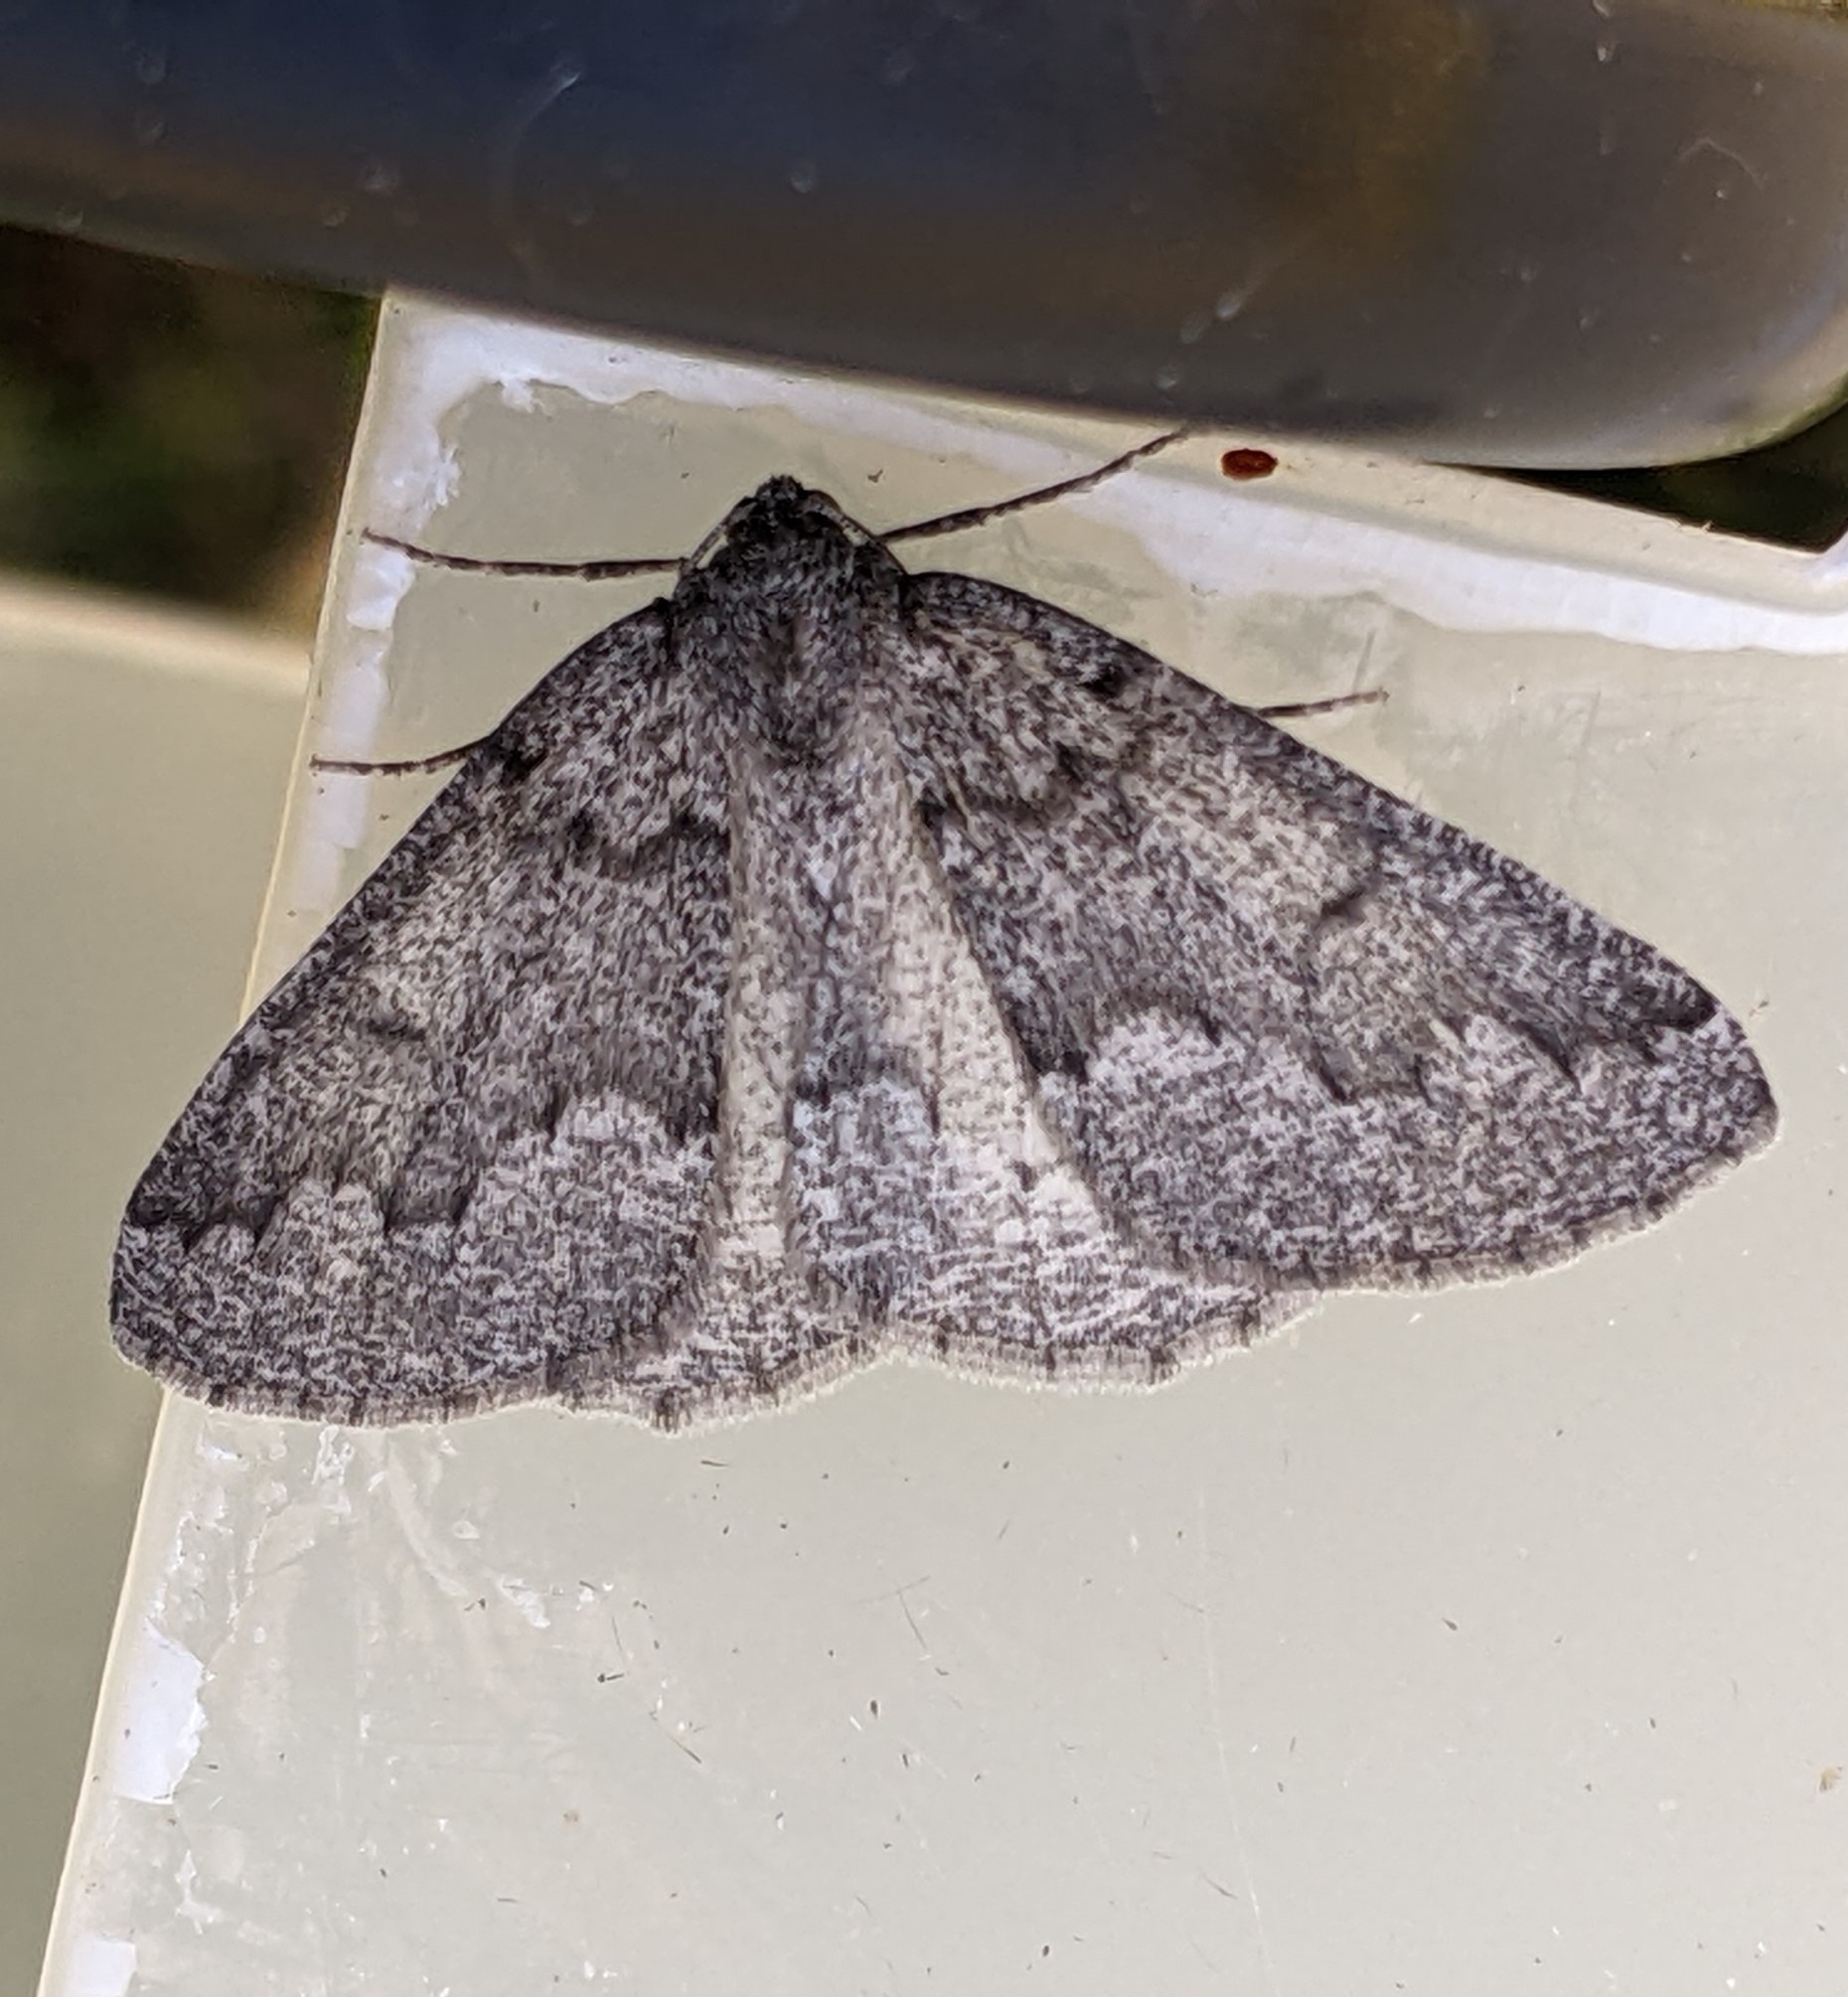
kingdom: Animalia
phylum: Arthropoda
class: Insecta
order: Lepidoptera
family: Geometridae
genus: Sabulodes
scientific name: Sabulodes
